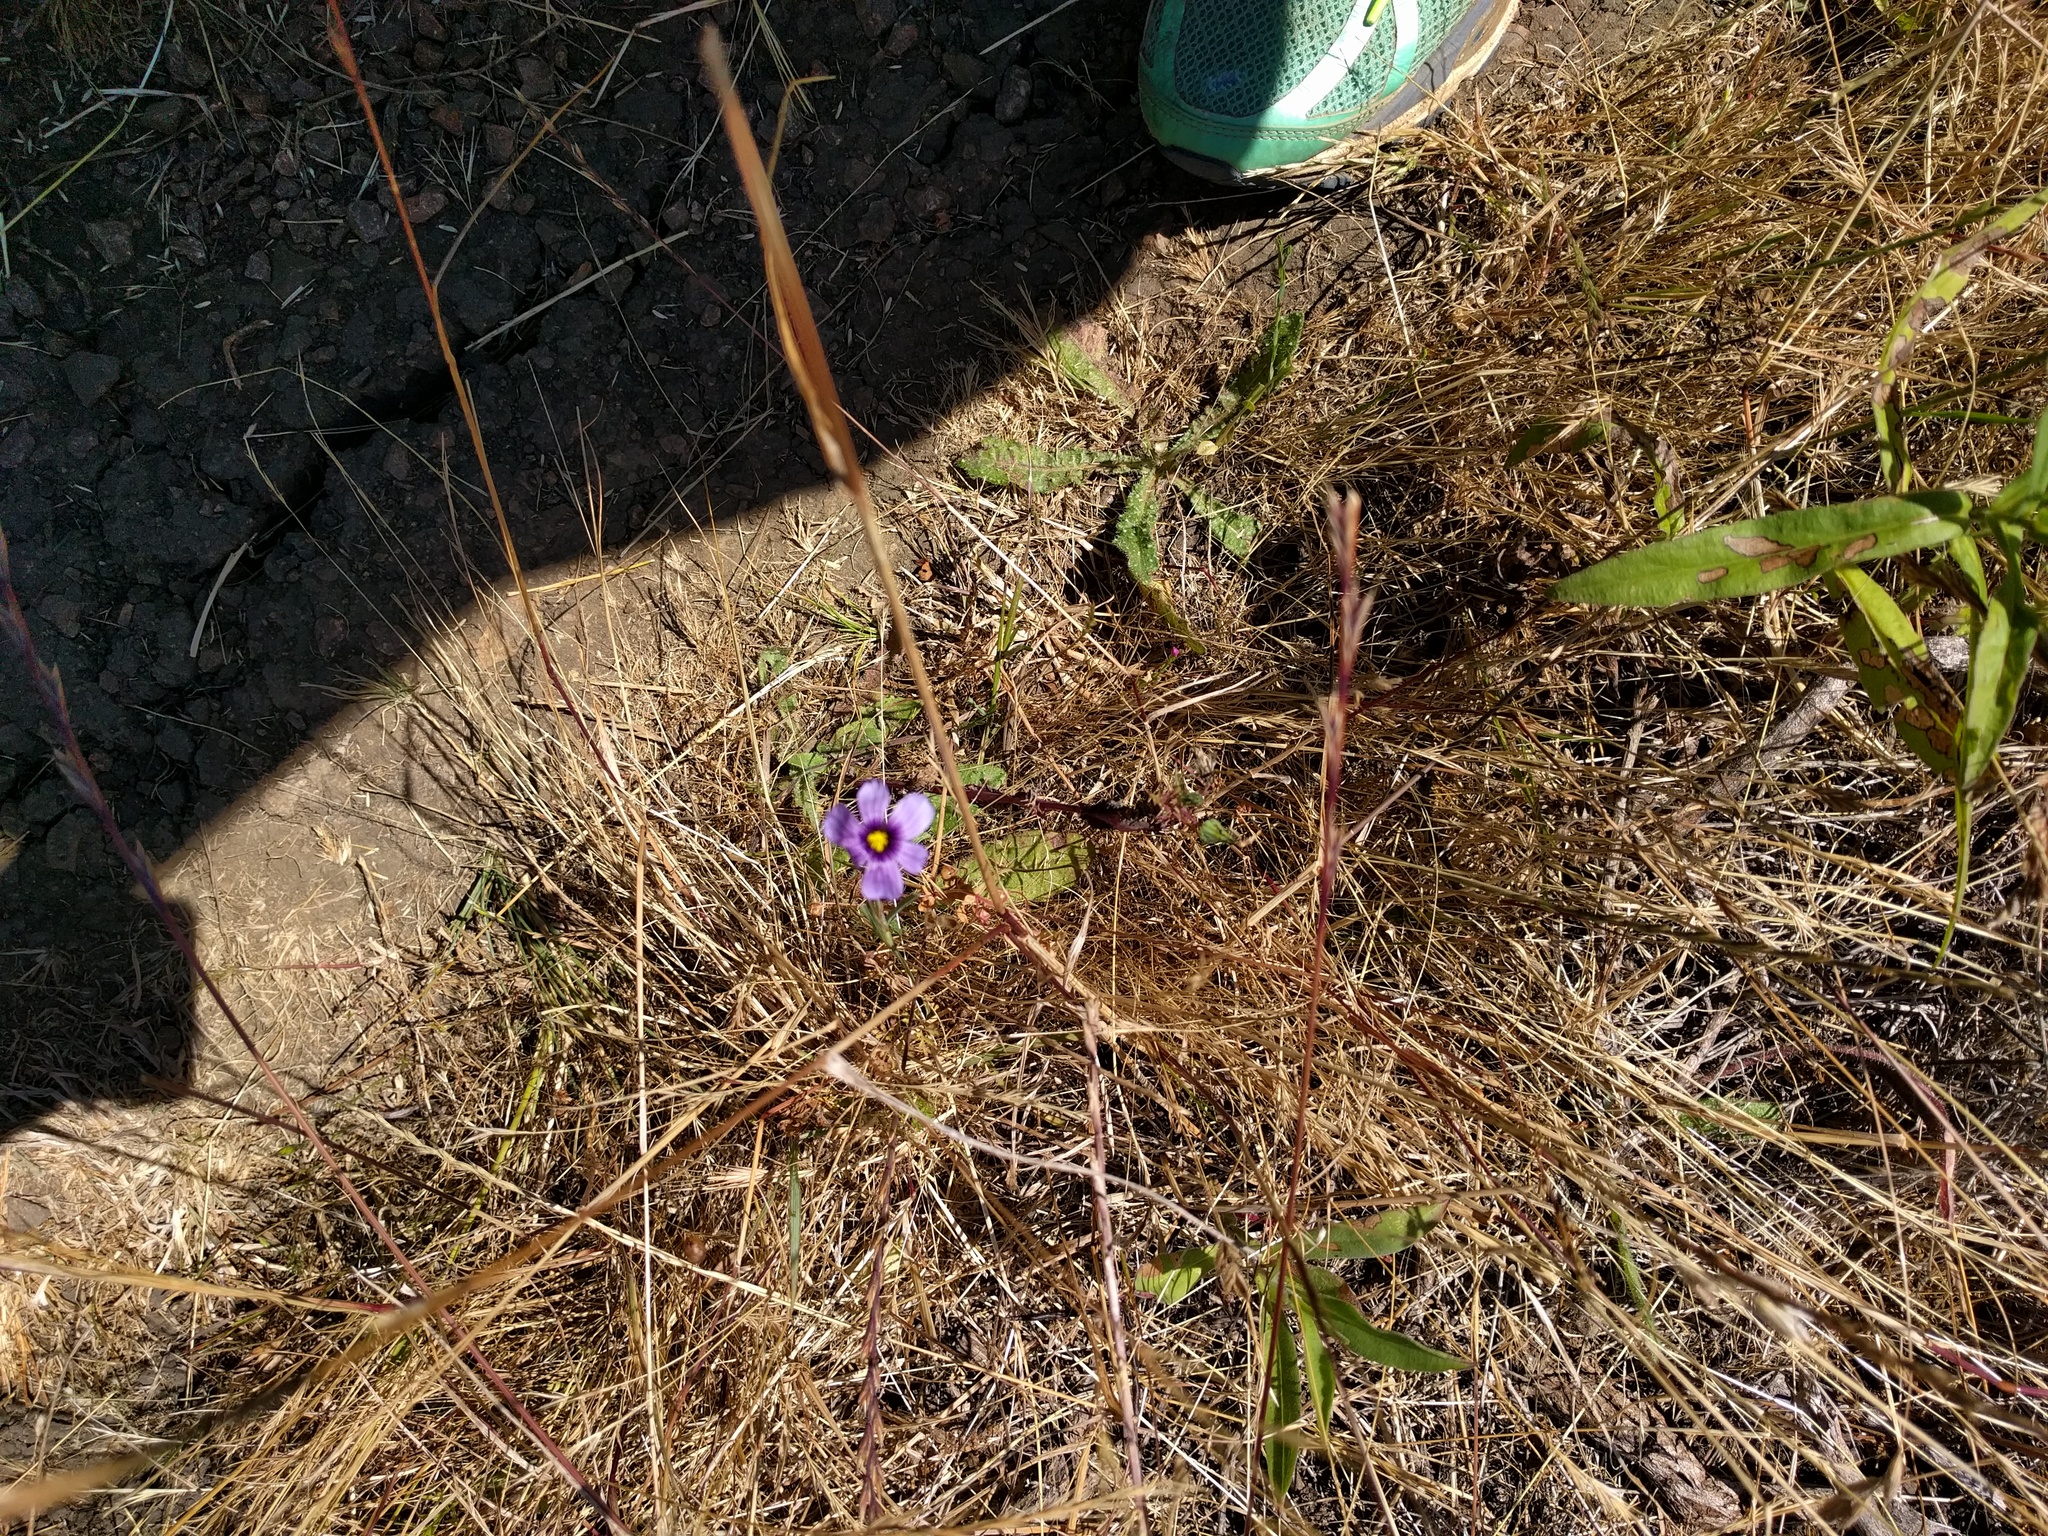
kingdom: Plantae
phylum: Tracheophyta
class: Liliopsida
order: Asparagales
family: Iridaceae
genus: Sisyrinchium
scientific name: Sisyrinchium bellum
